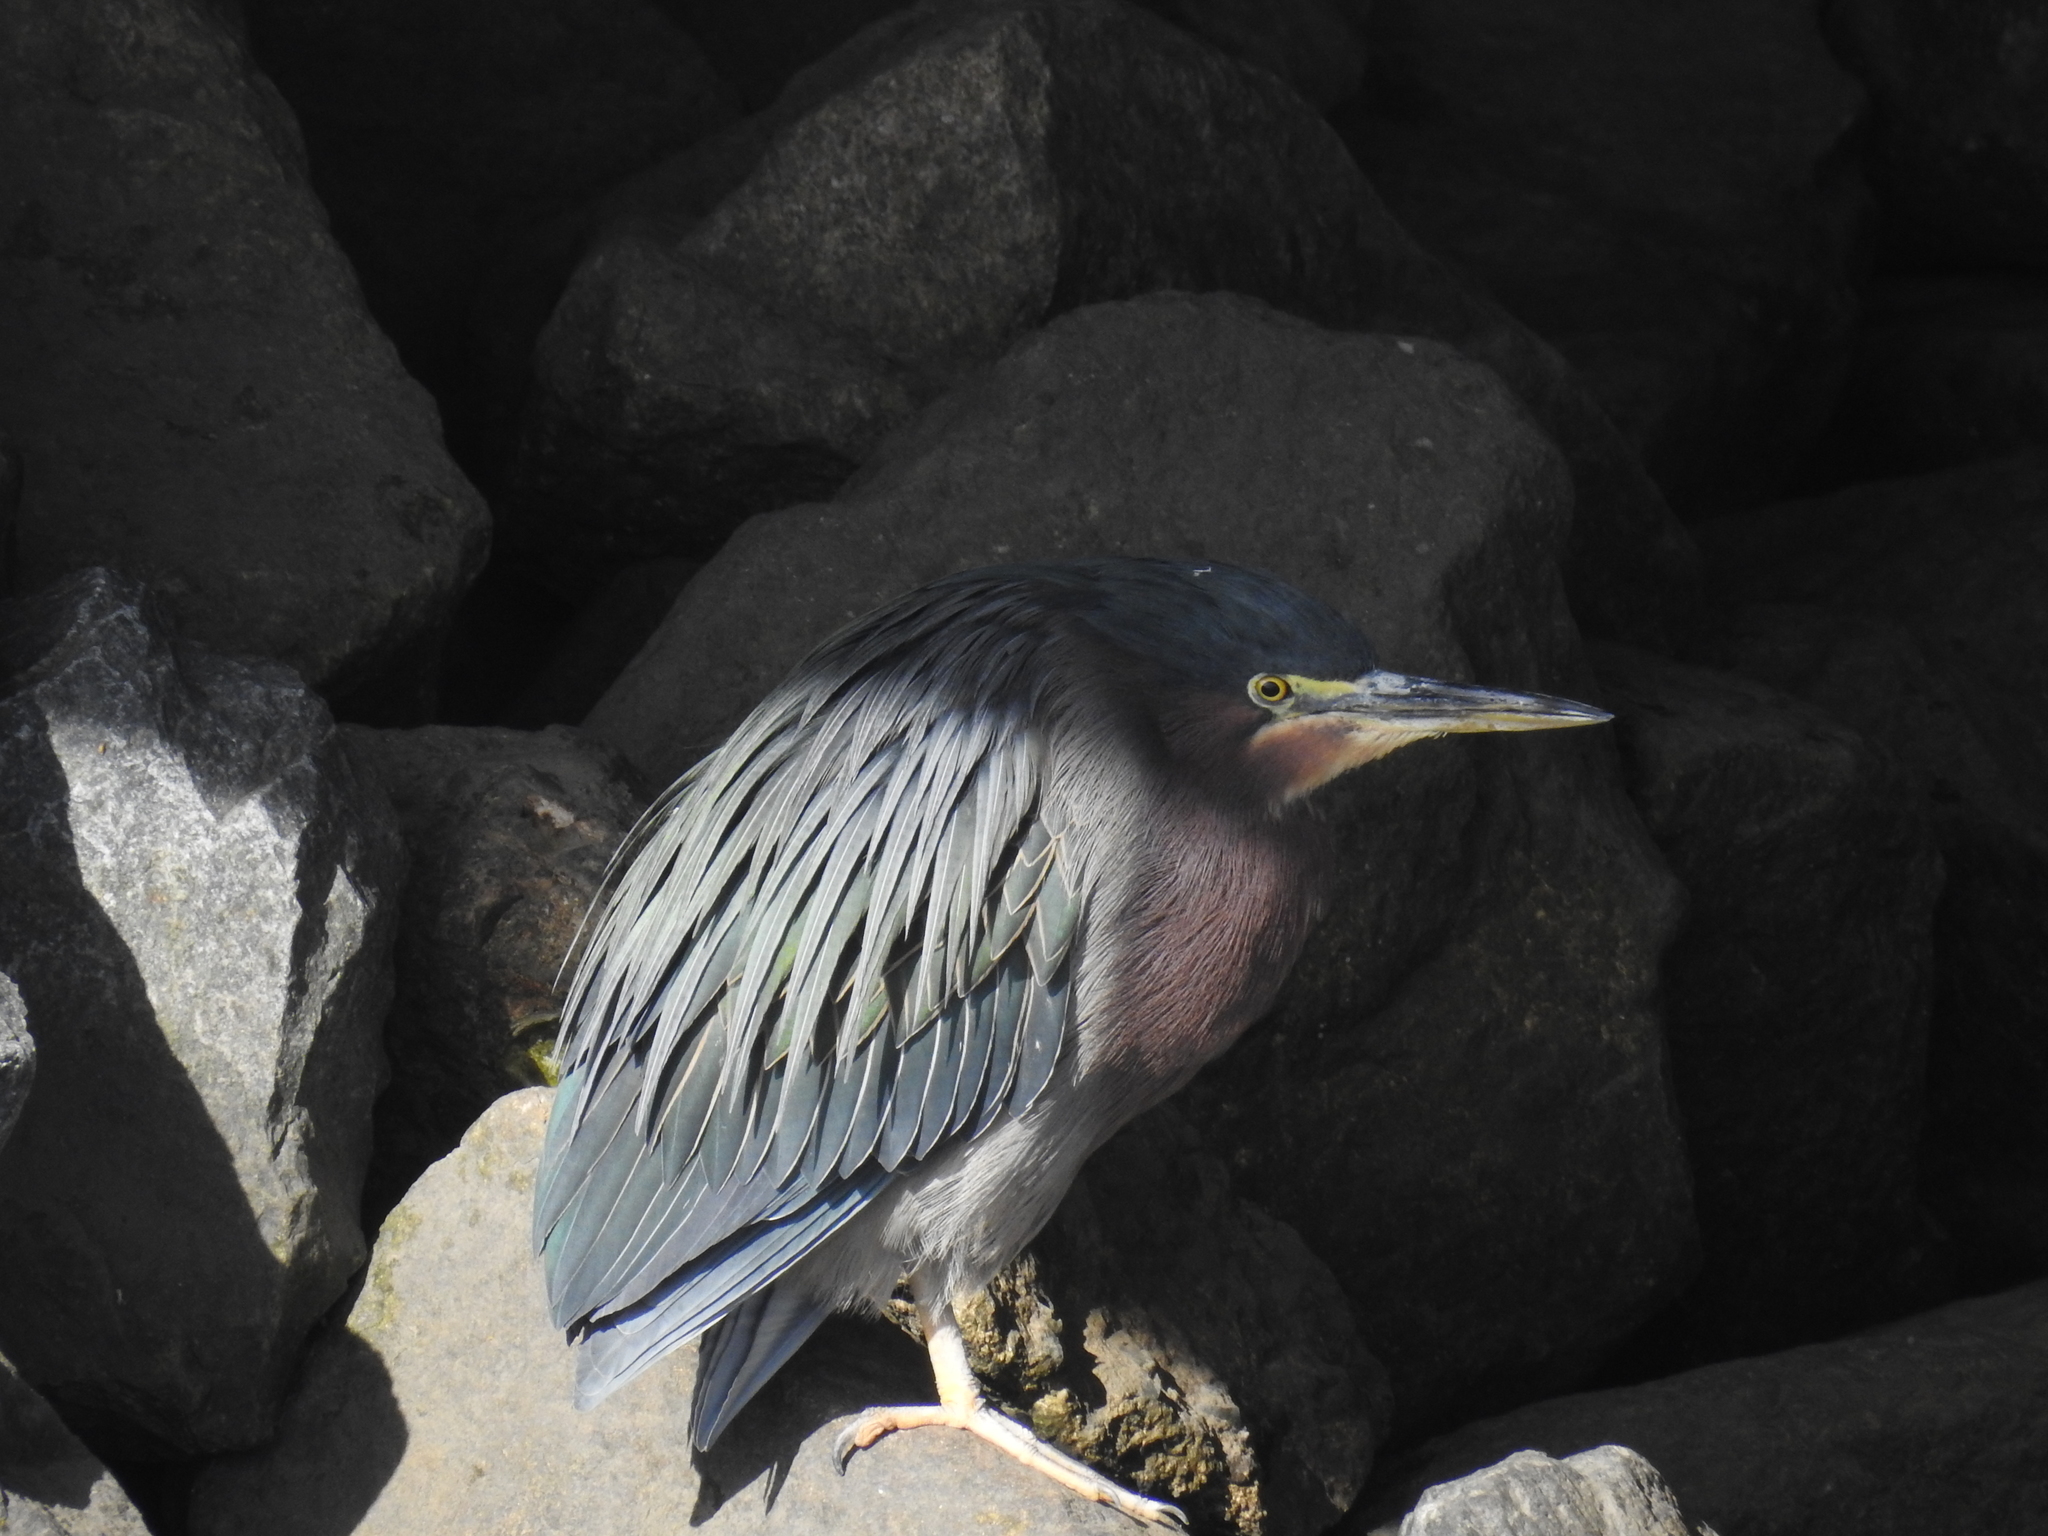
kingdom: Animalia
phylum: Chordata
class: Aves
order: Pelecaniformes
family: Ardeidae
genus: Butorides
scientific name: Butorides virescens
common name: Green heron
